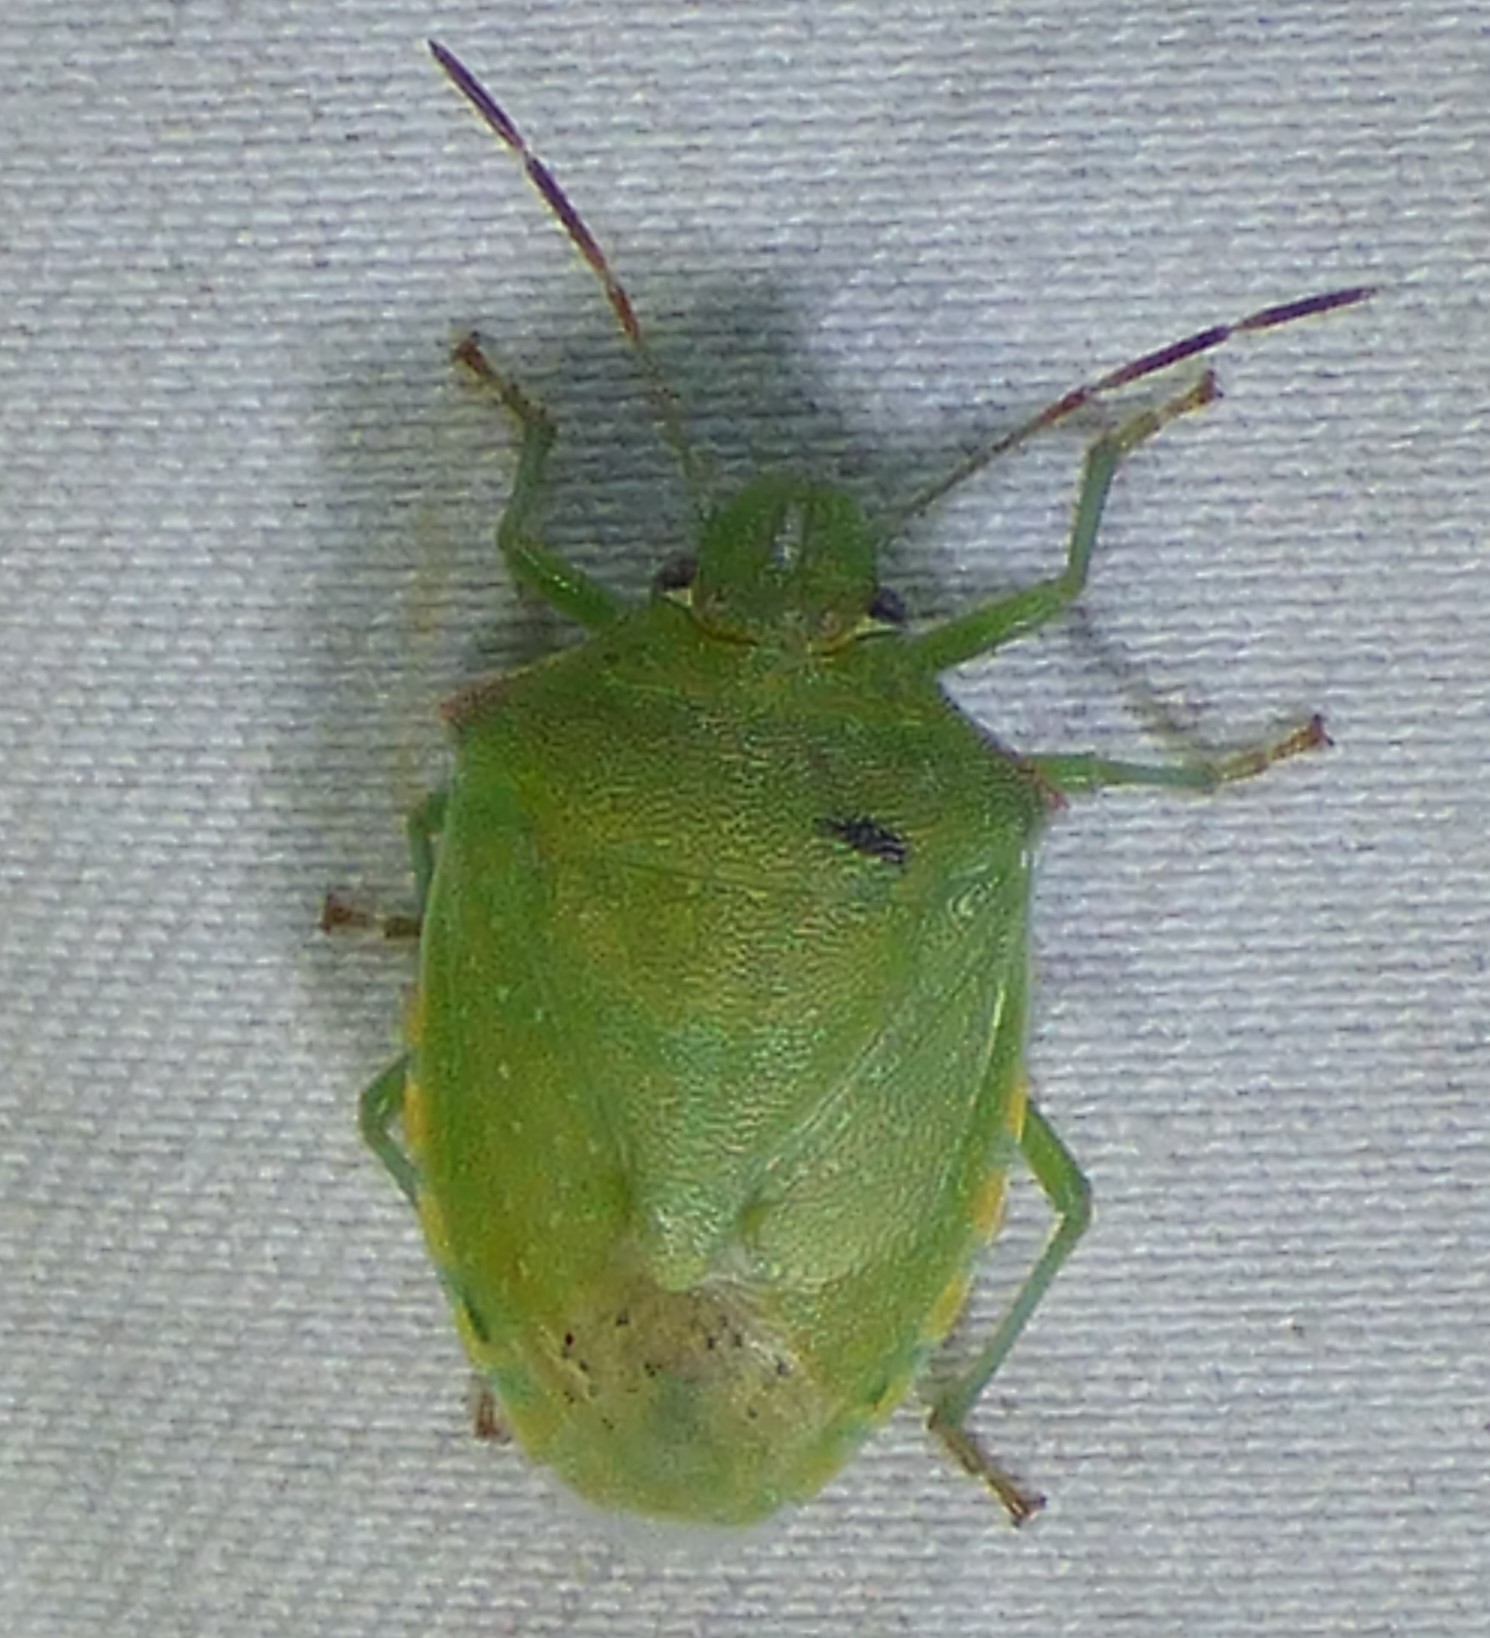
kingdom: Animalia
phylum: Arthropoda
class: Insecta
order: Hemiptera
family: Pentatomidae
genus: Thyanta
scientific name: Thyanta custator
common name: Stink bug
